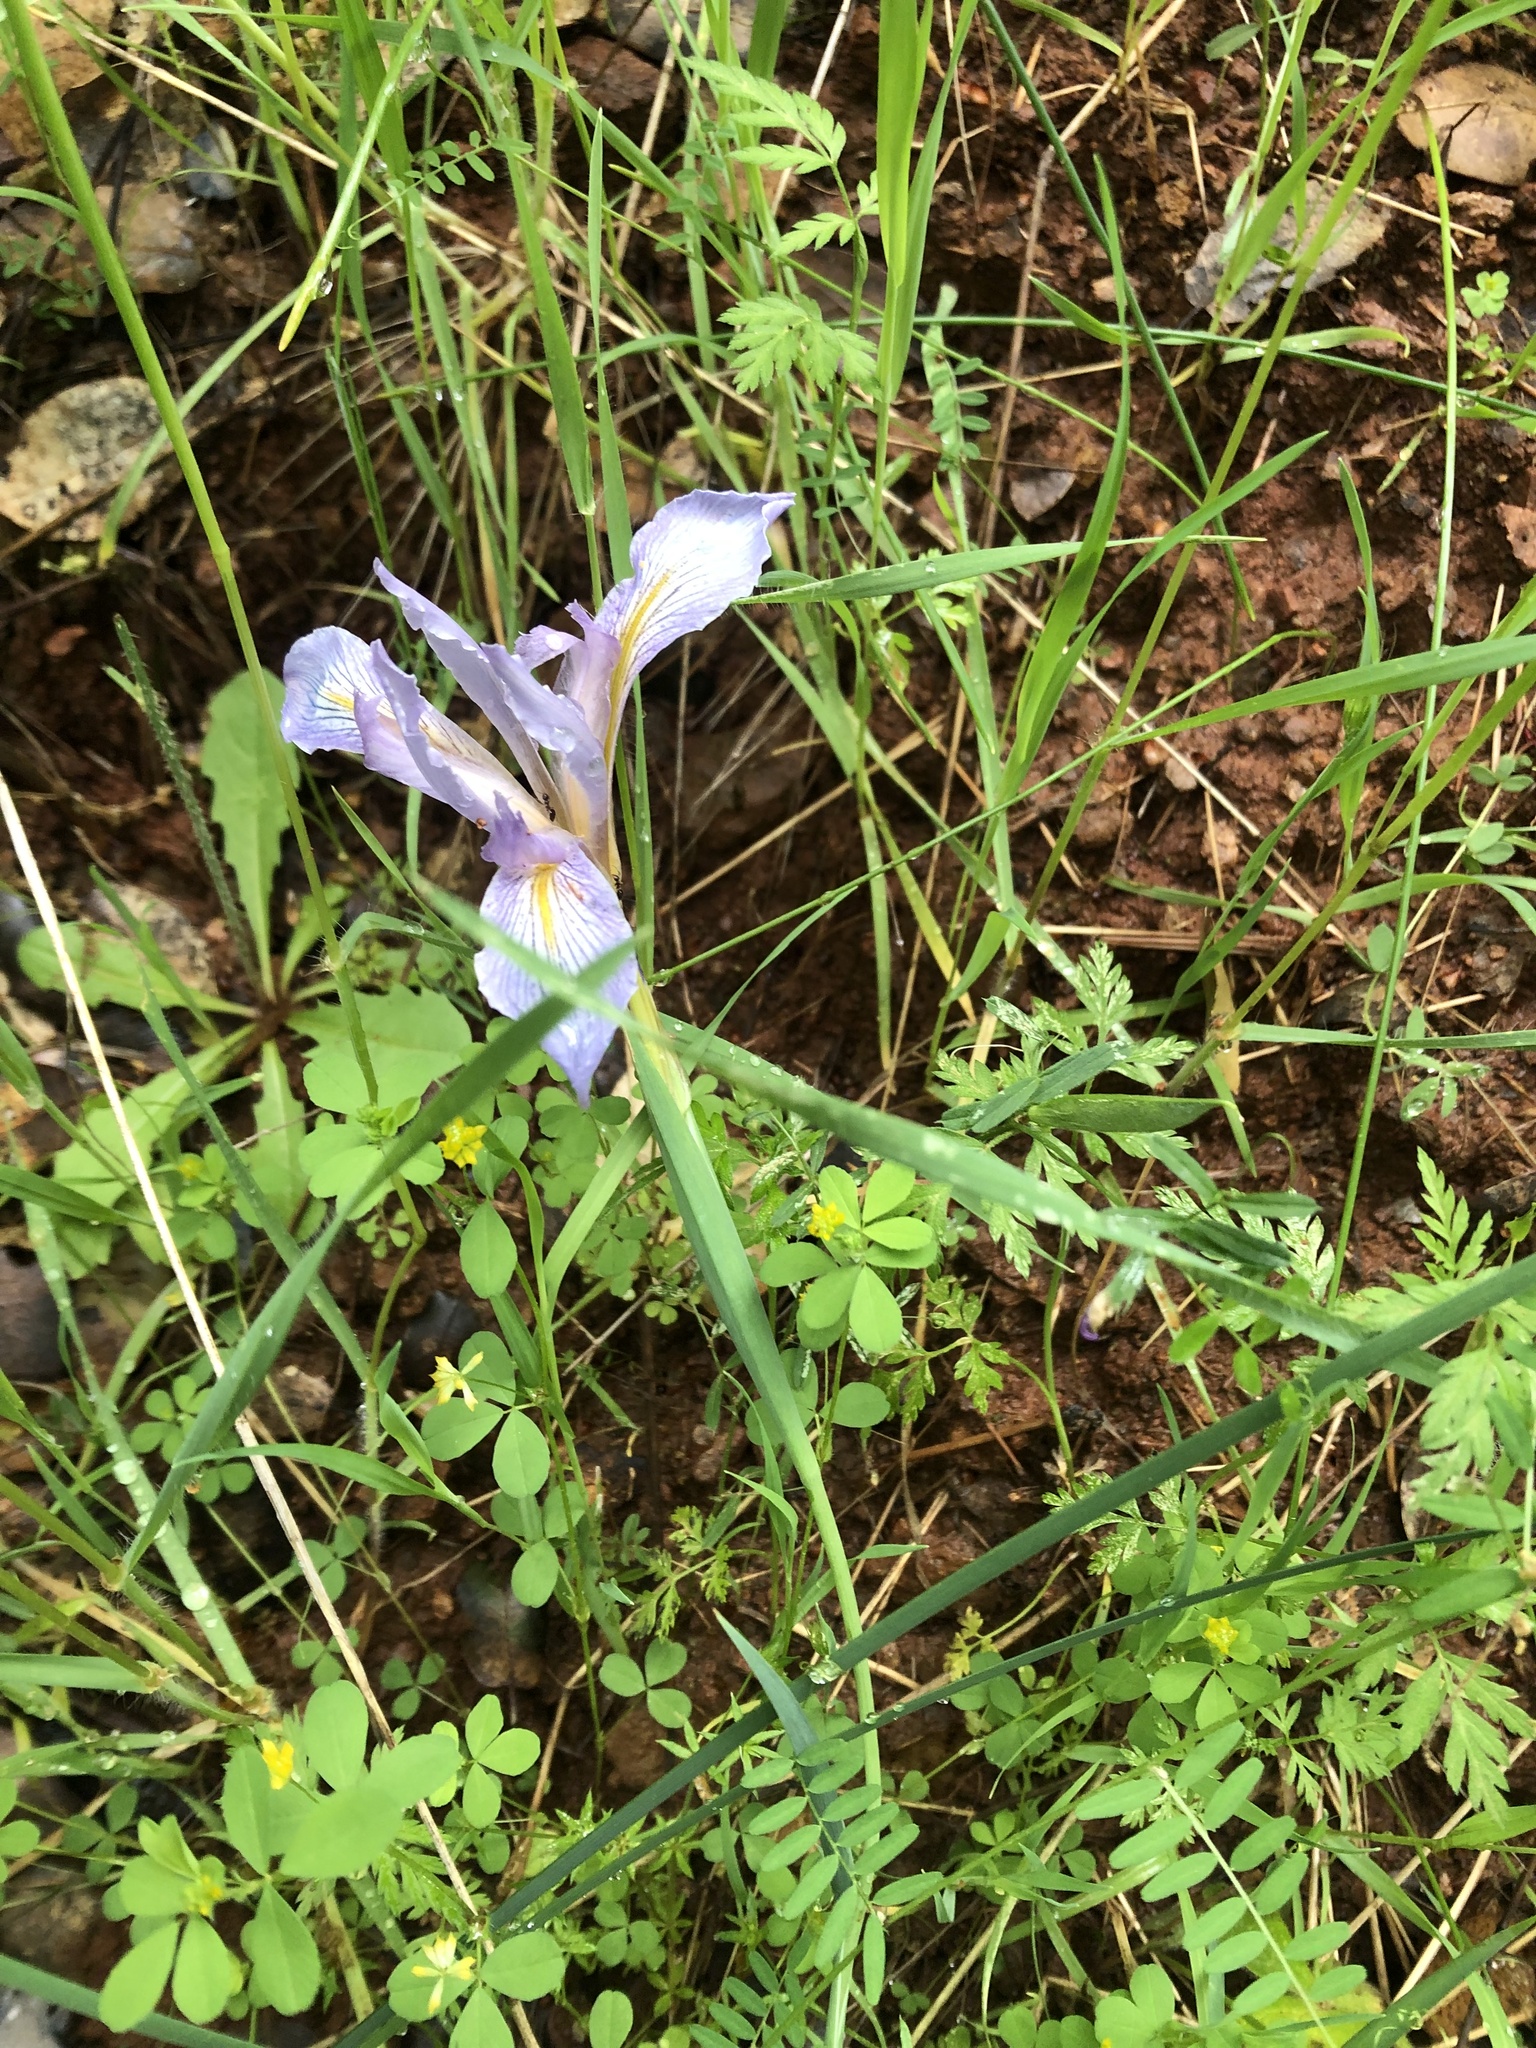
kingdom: Plantae
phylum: Tracheophyta
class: Liliopsida
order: Asparagales
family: Iridaceae
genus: Iris
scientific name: Iris macrosiphon
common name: Ground iris
